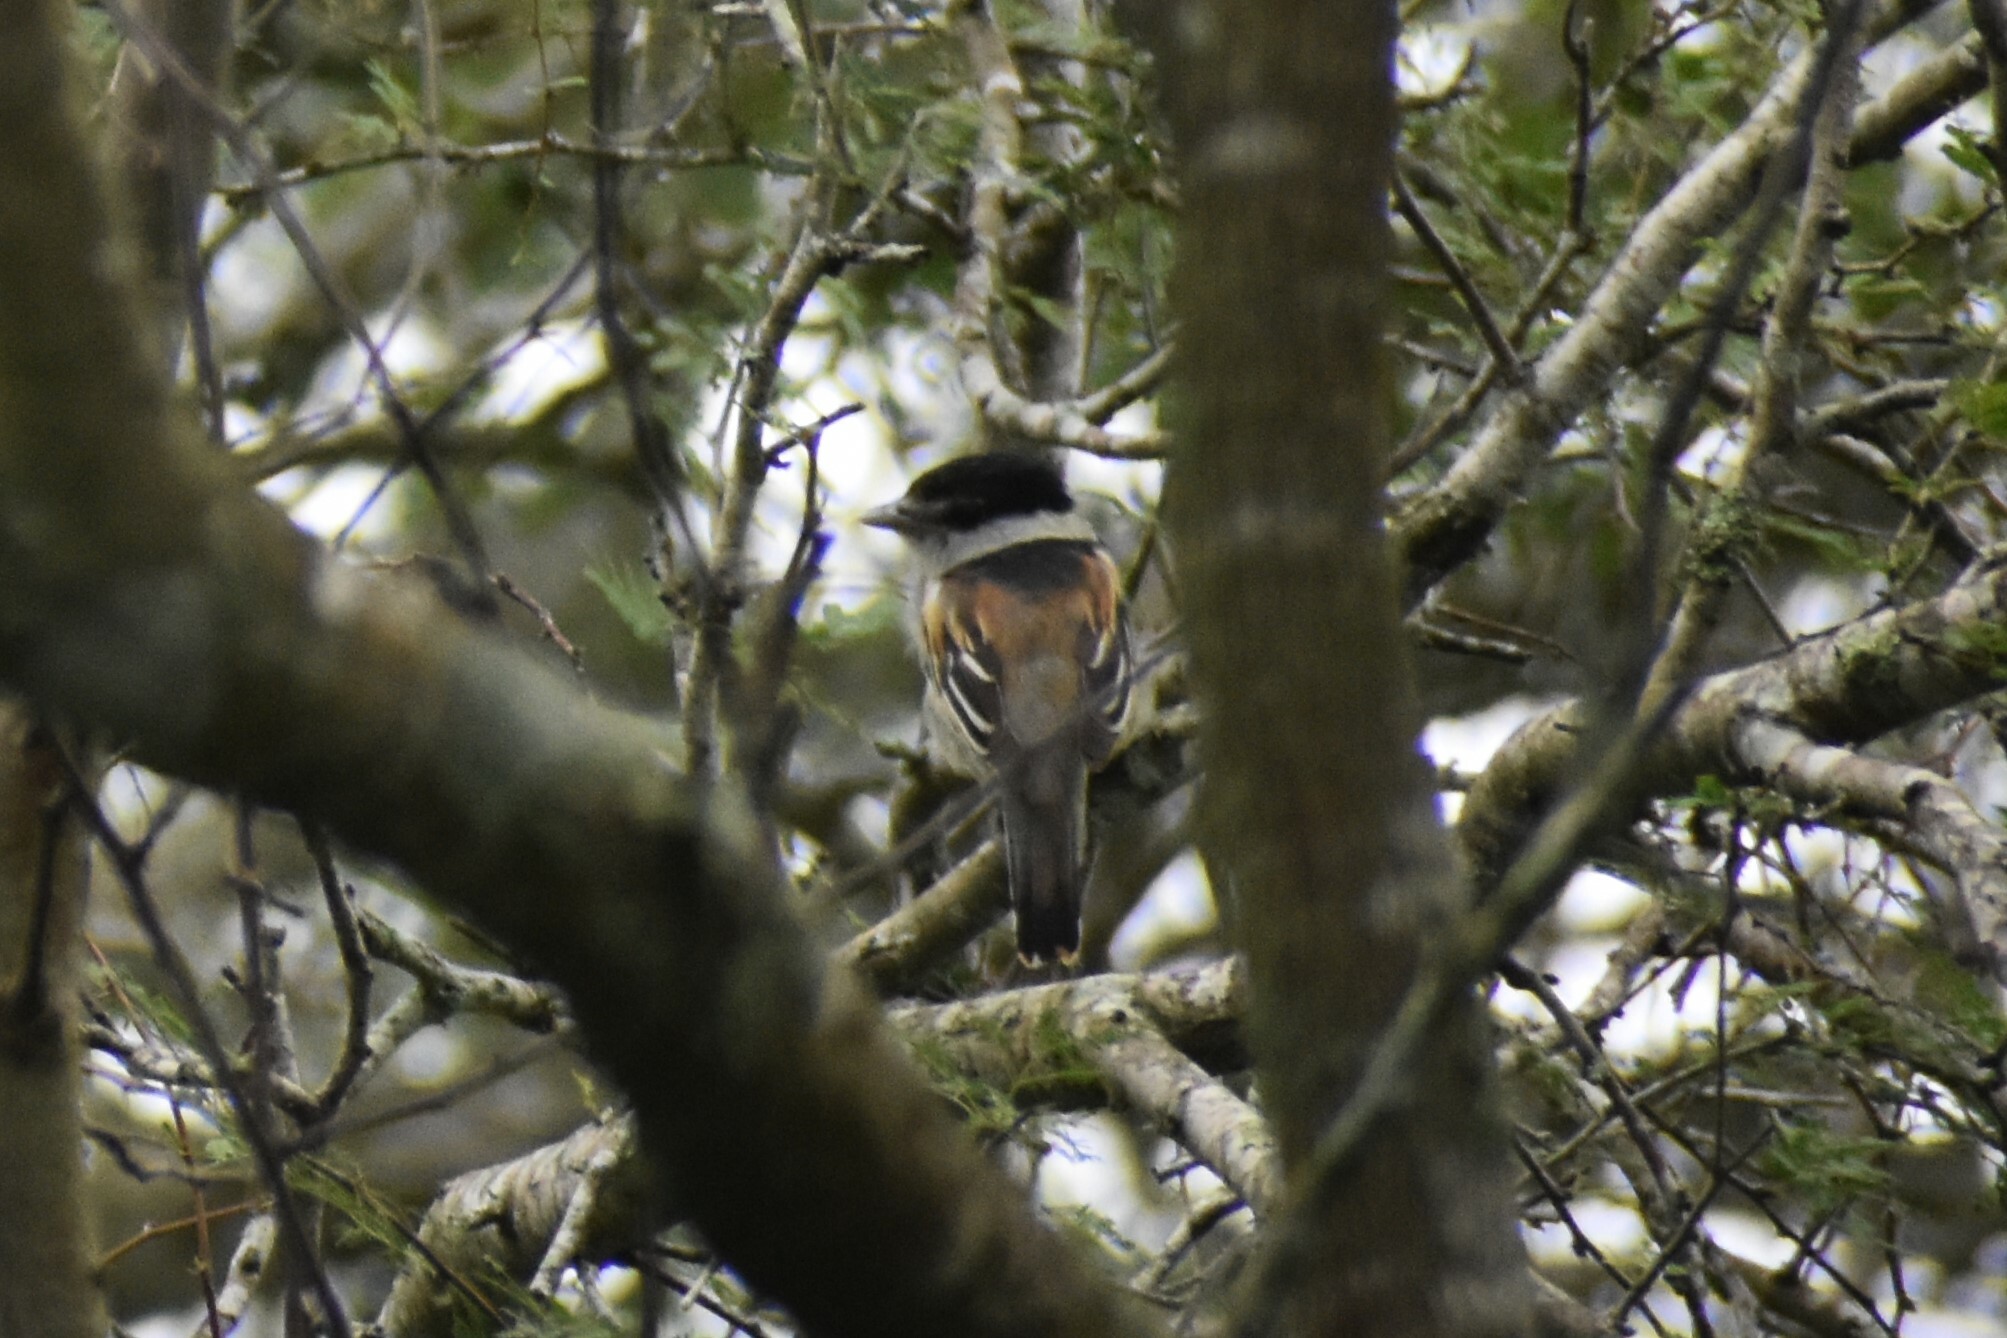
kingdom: Animalia
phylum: Chordata
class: Aves
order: Passeriformes
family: Cotingidae
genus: Pachyramphus
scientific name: Pachyramphus major
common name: Gray-collared becard
